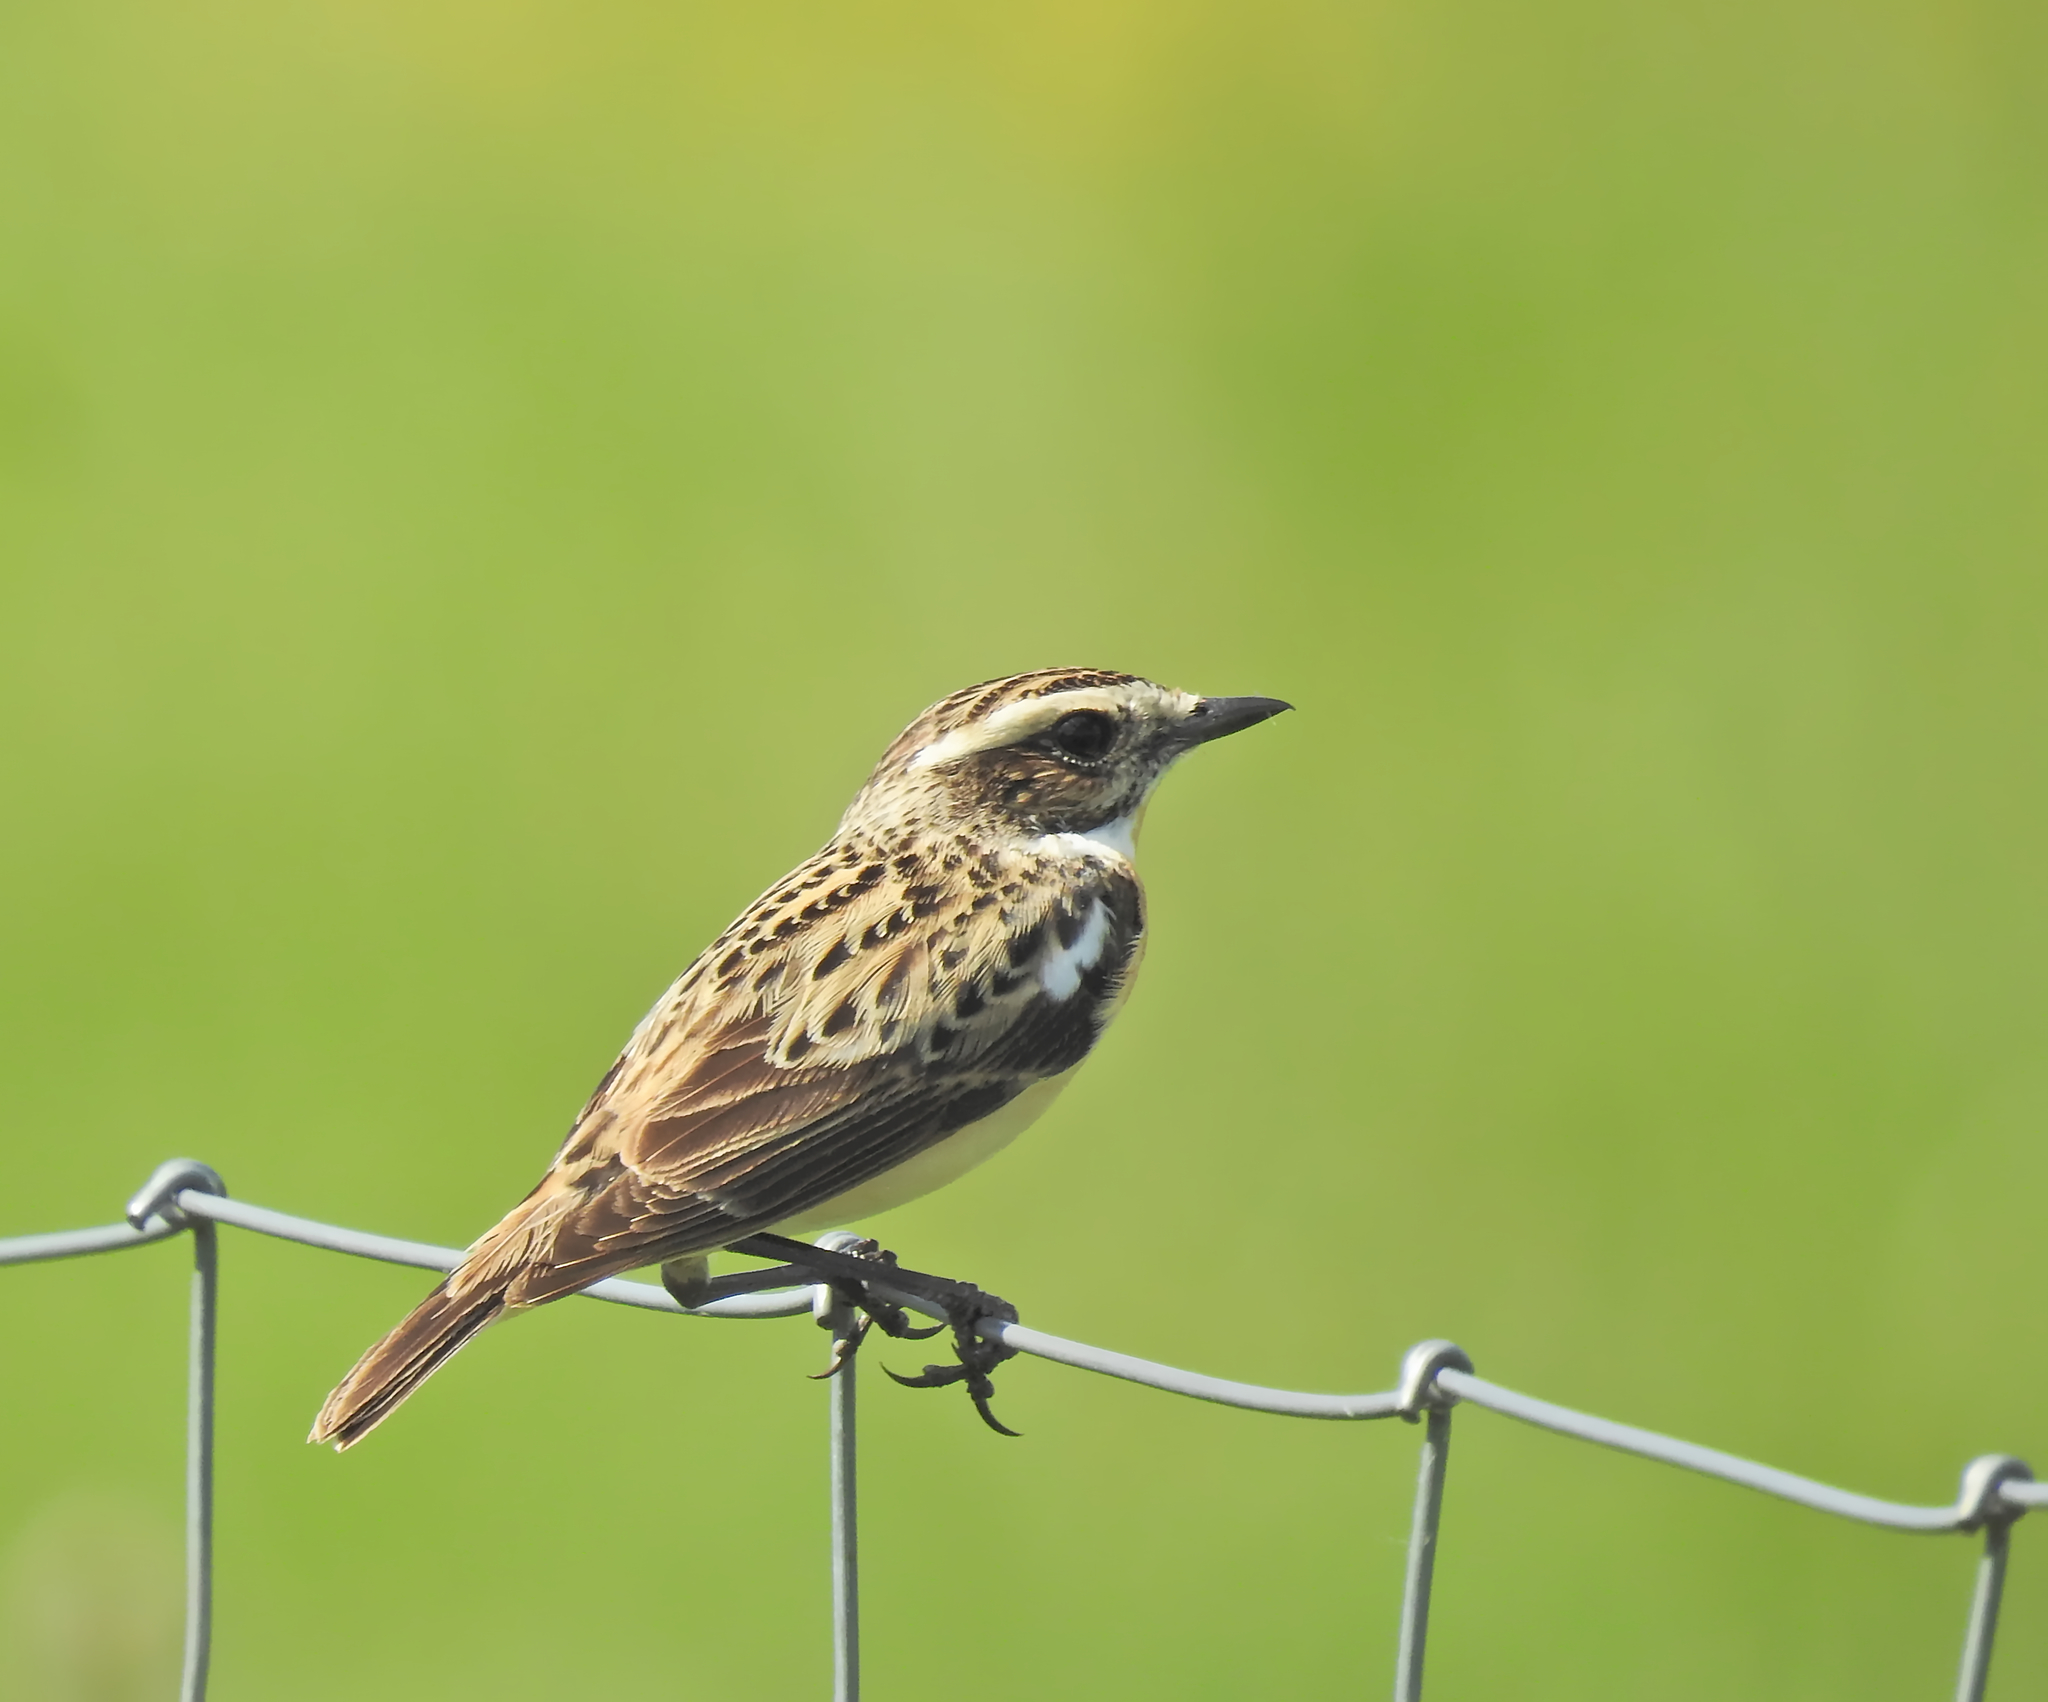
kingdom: Animalia
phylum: Chordata
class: Aves
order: Passeriformes
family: Muscicapidae
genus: Saxicola
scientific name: Saxicola rubetra
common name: Whinchat
